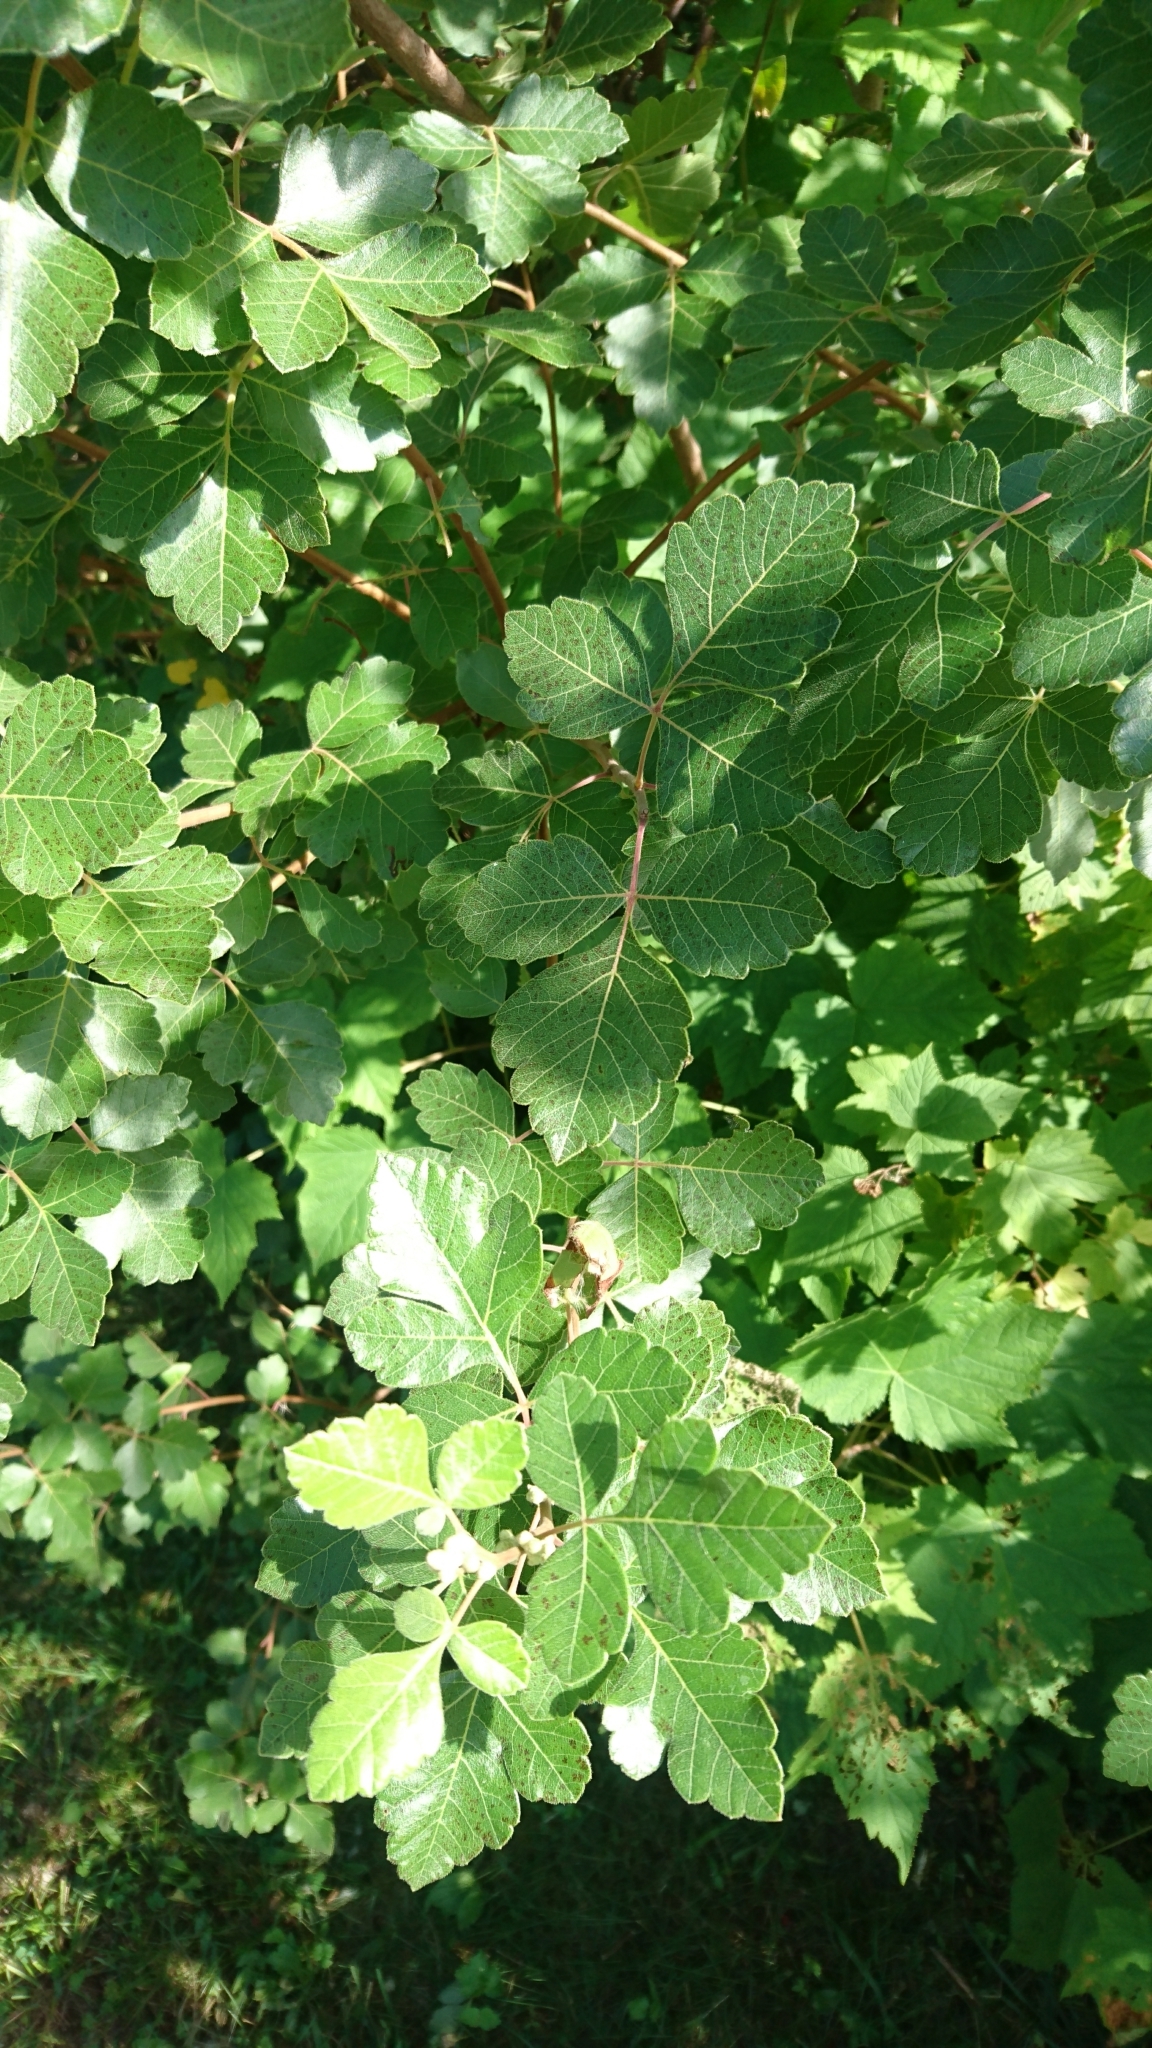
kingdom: Plantae
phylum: Tracheophyta
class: Magnoliopsida
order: Sapindales
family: Anacardiaceae
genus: Rhus
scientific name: Rhus aromatica
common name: Aromatic sumac
